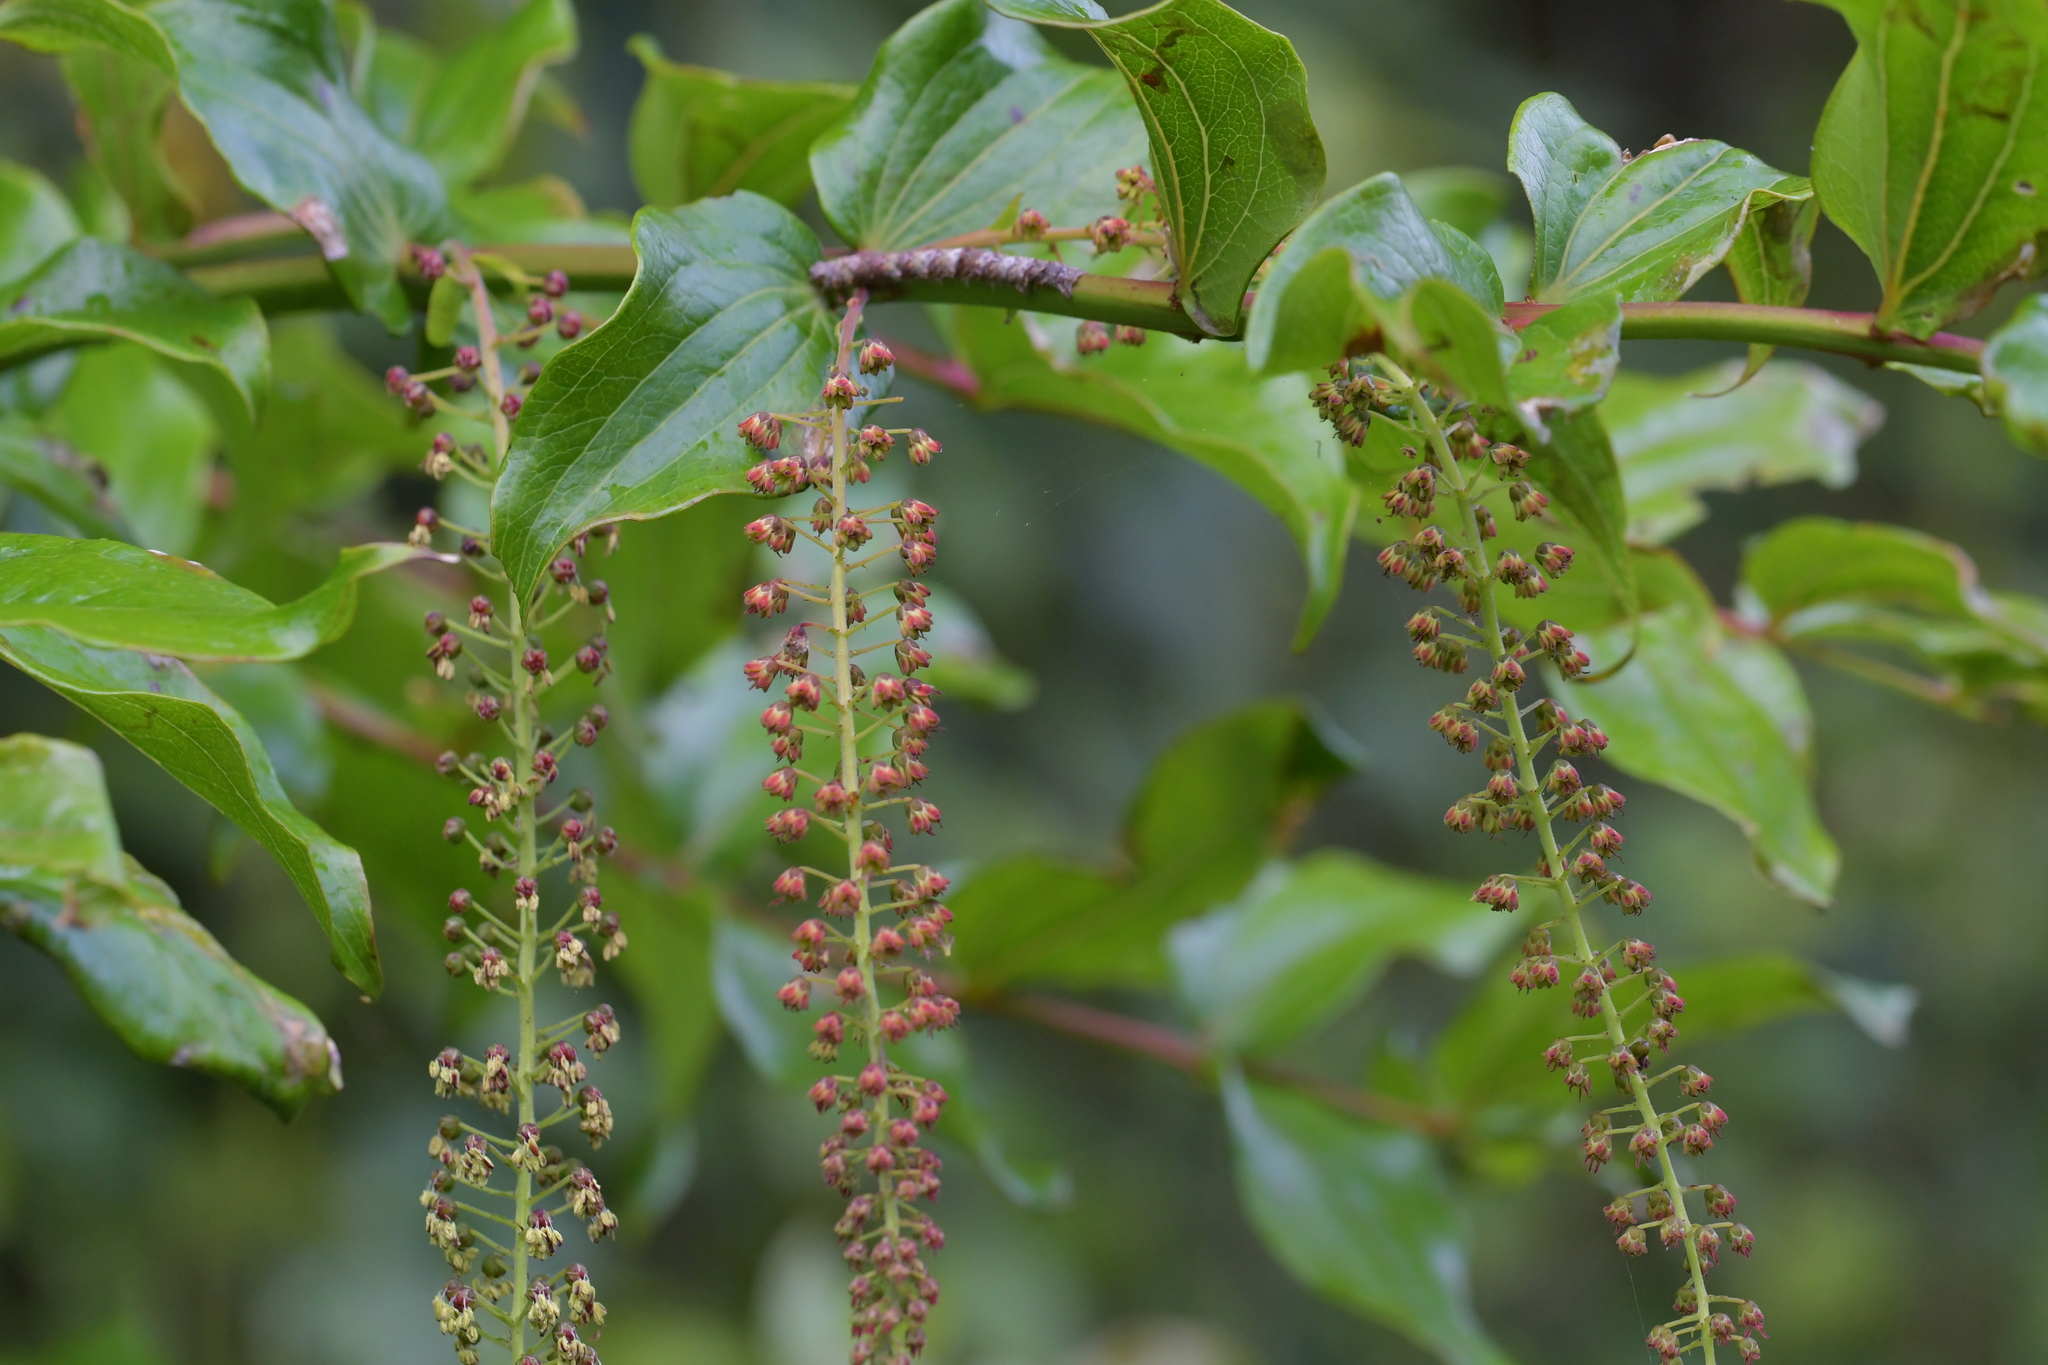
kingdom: Plantae
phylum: Tracheophyta
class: Magnoliopsida
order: Cucurbitales
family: Coriariaceae
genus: Coriaria
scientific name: Coriaria arborea
